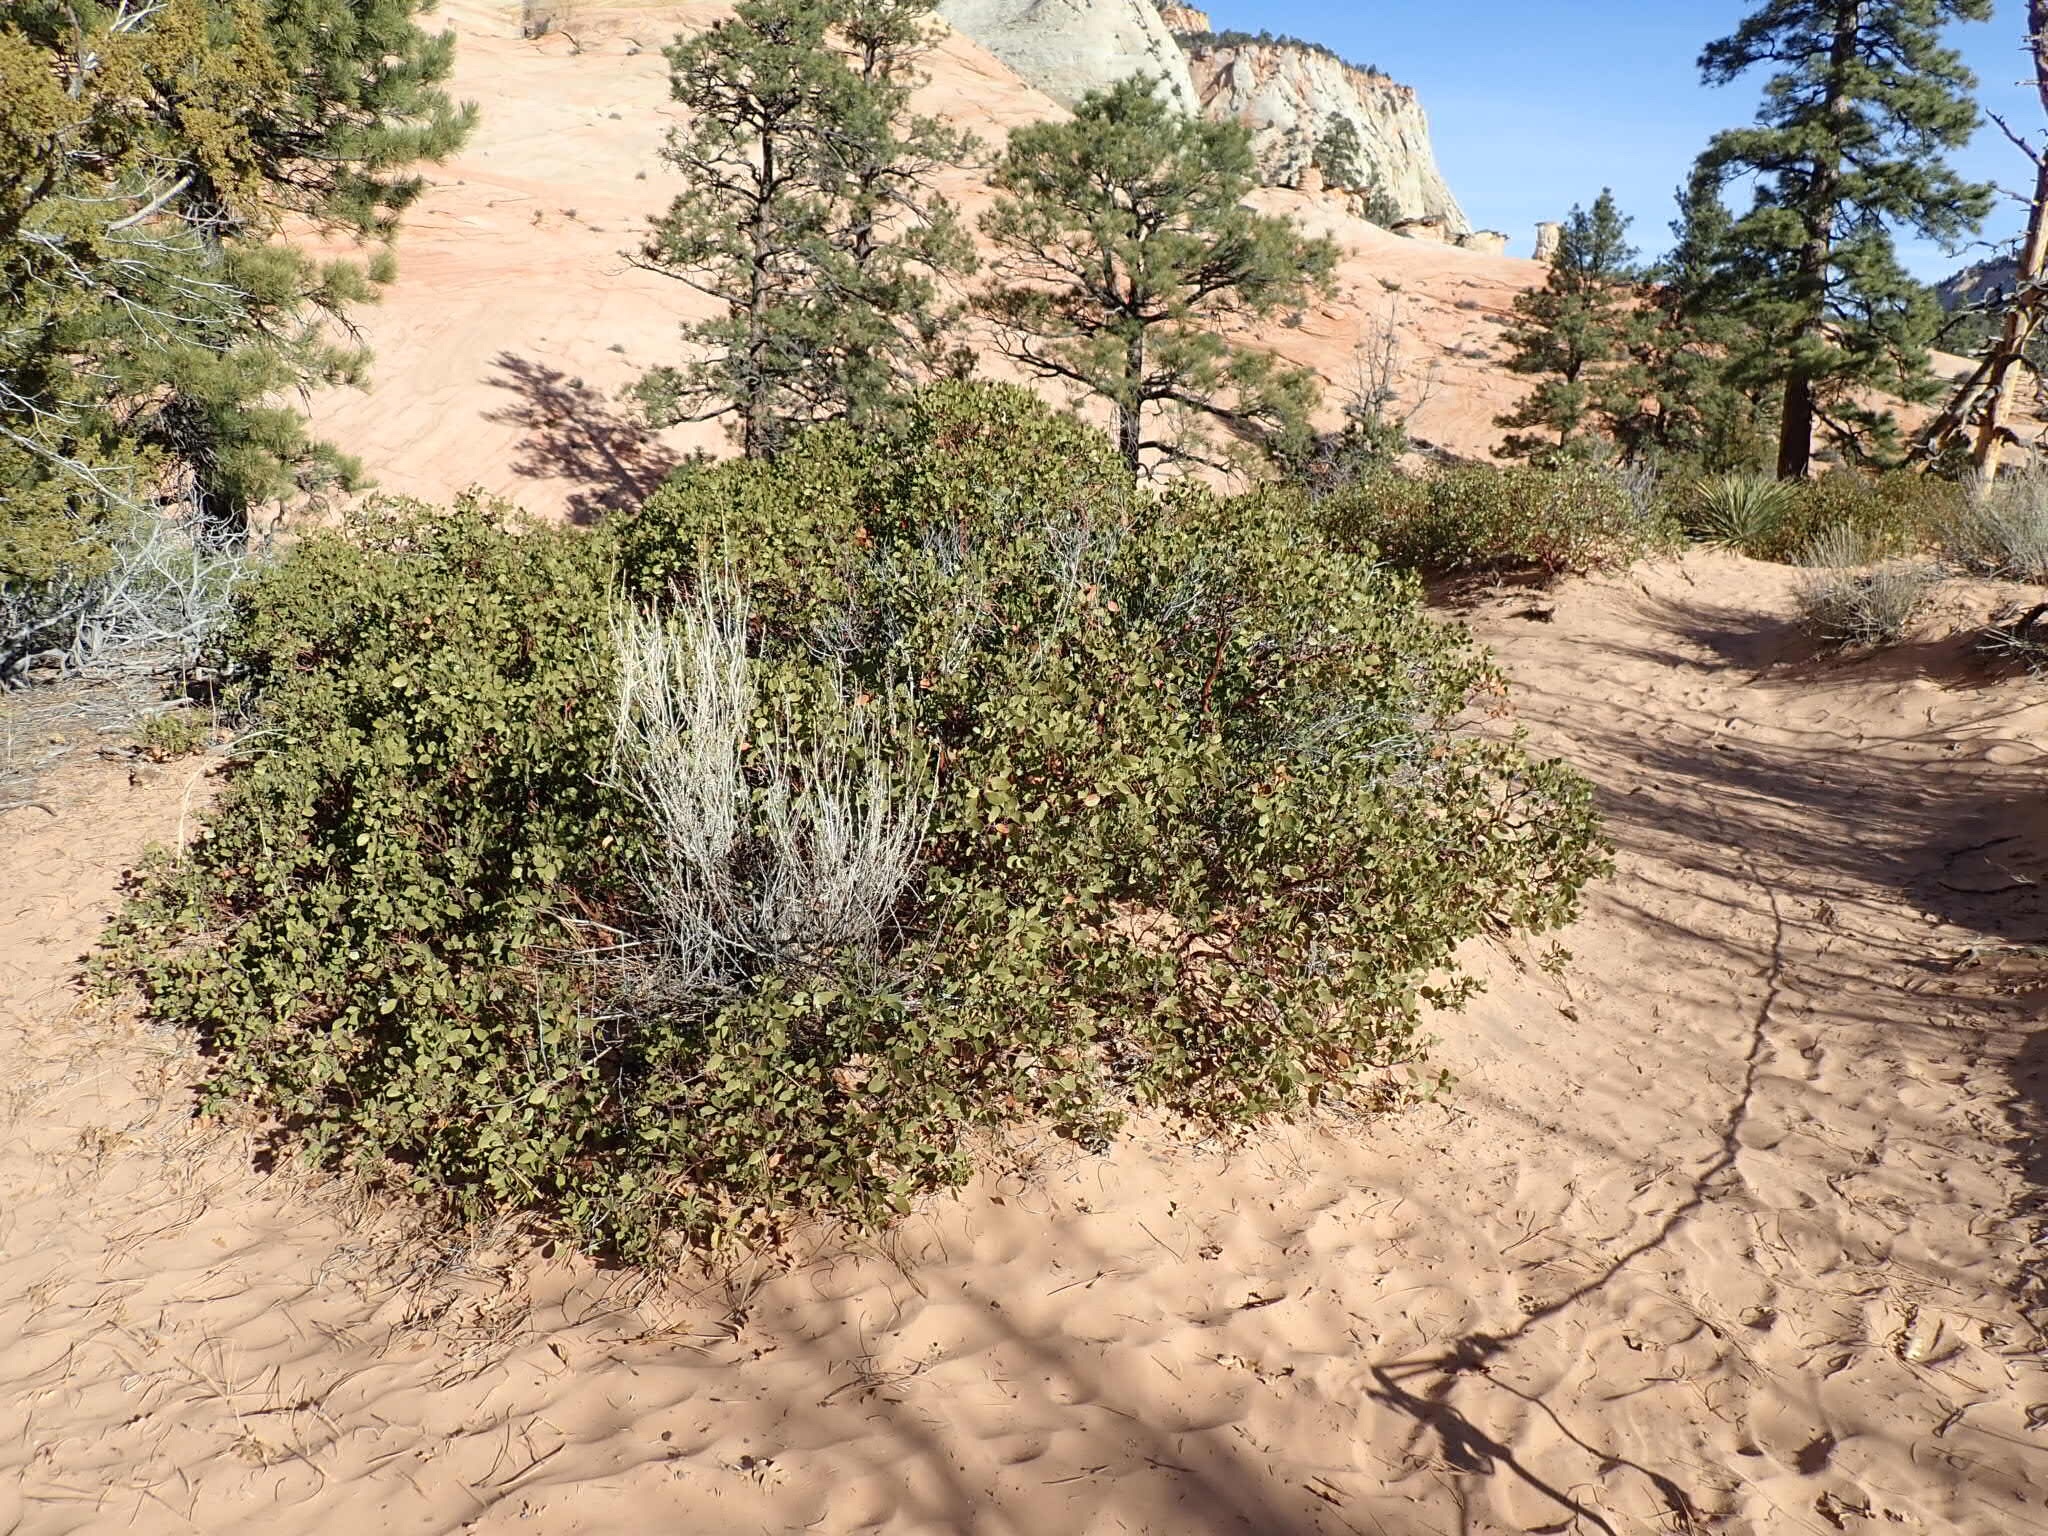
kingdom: Plantae
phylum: Tracheophyta
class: Magnoliopsida
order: Ericales
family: Ericaceae
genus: Arctostaphylos
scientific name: Arctostaphylos patula
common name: Green-leaf manzanita
